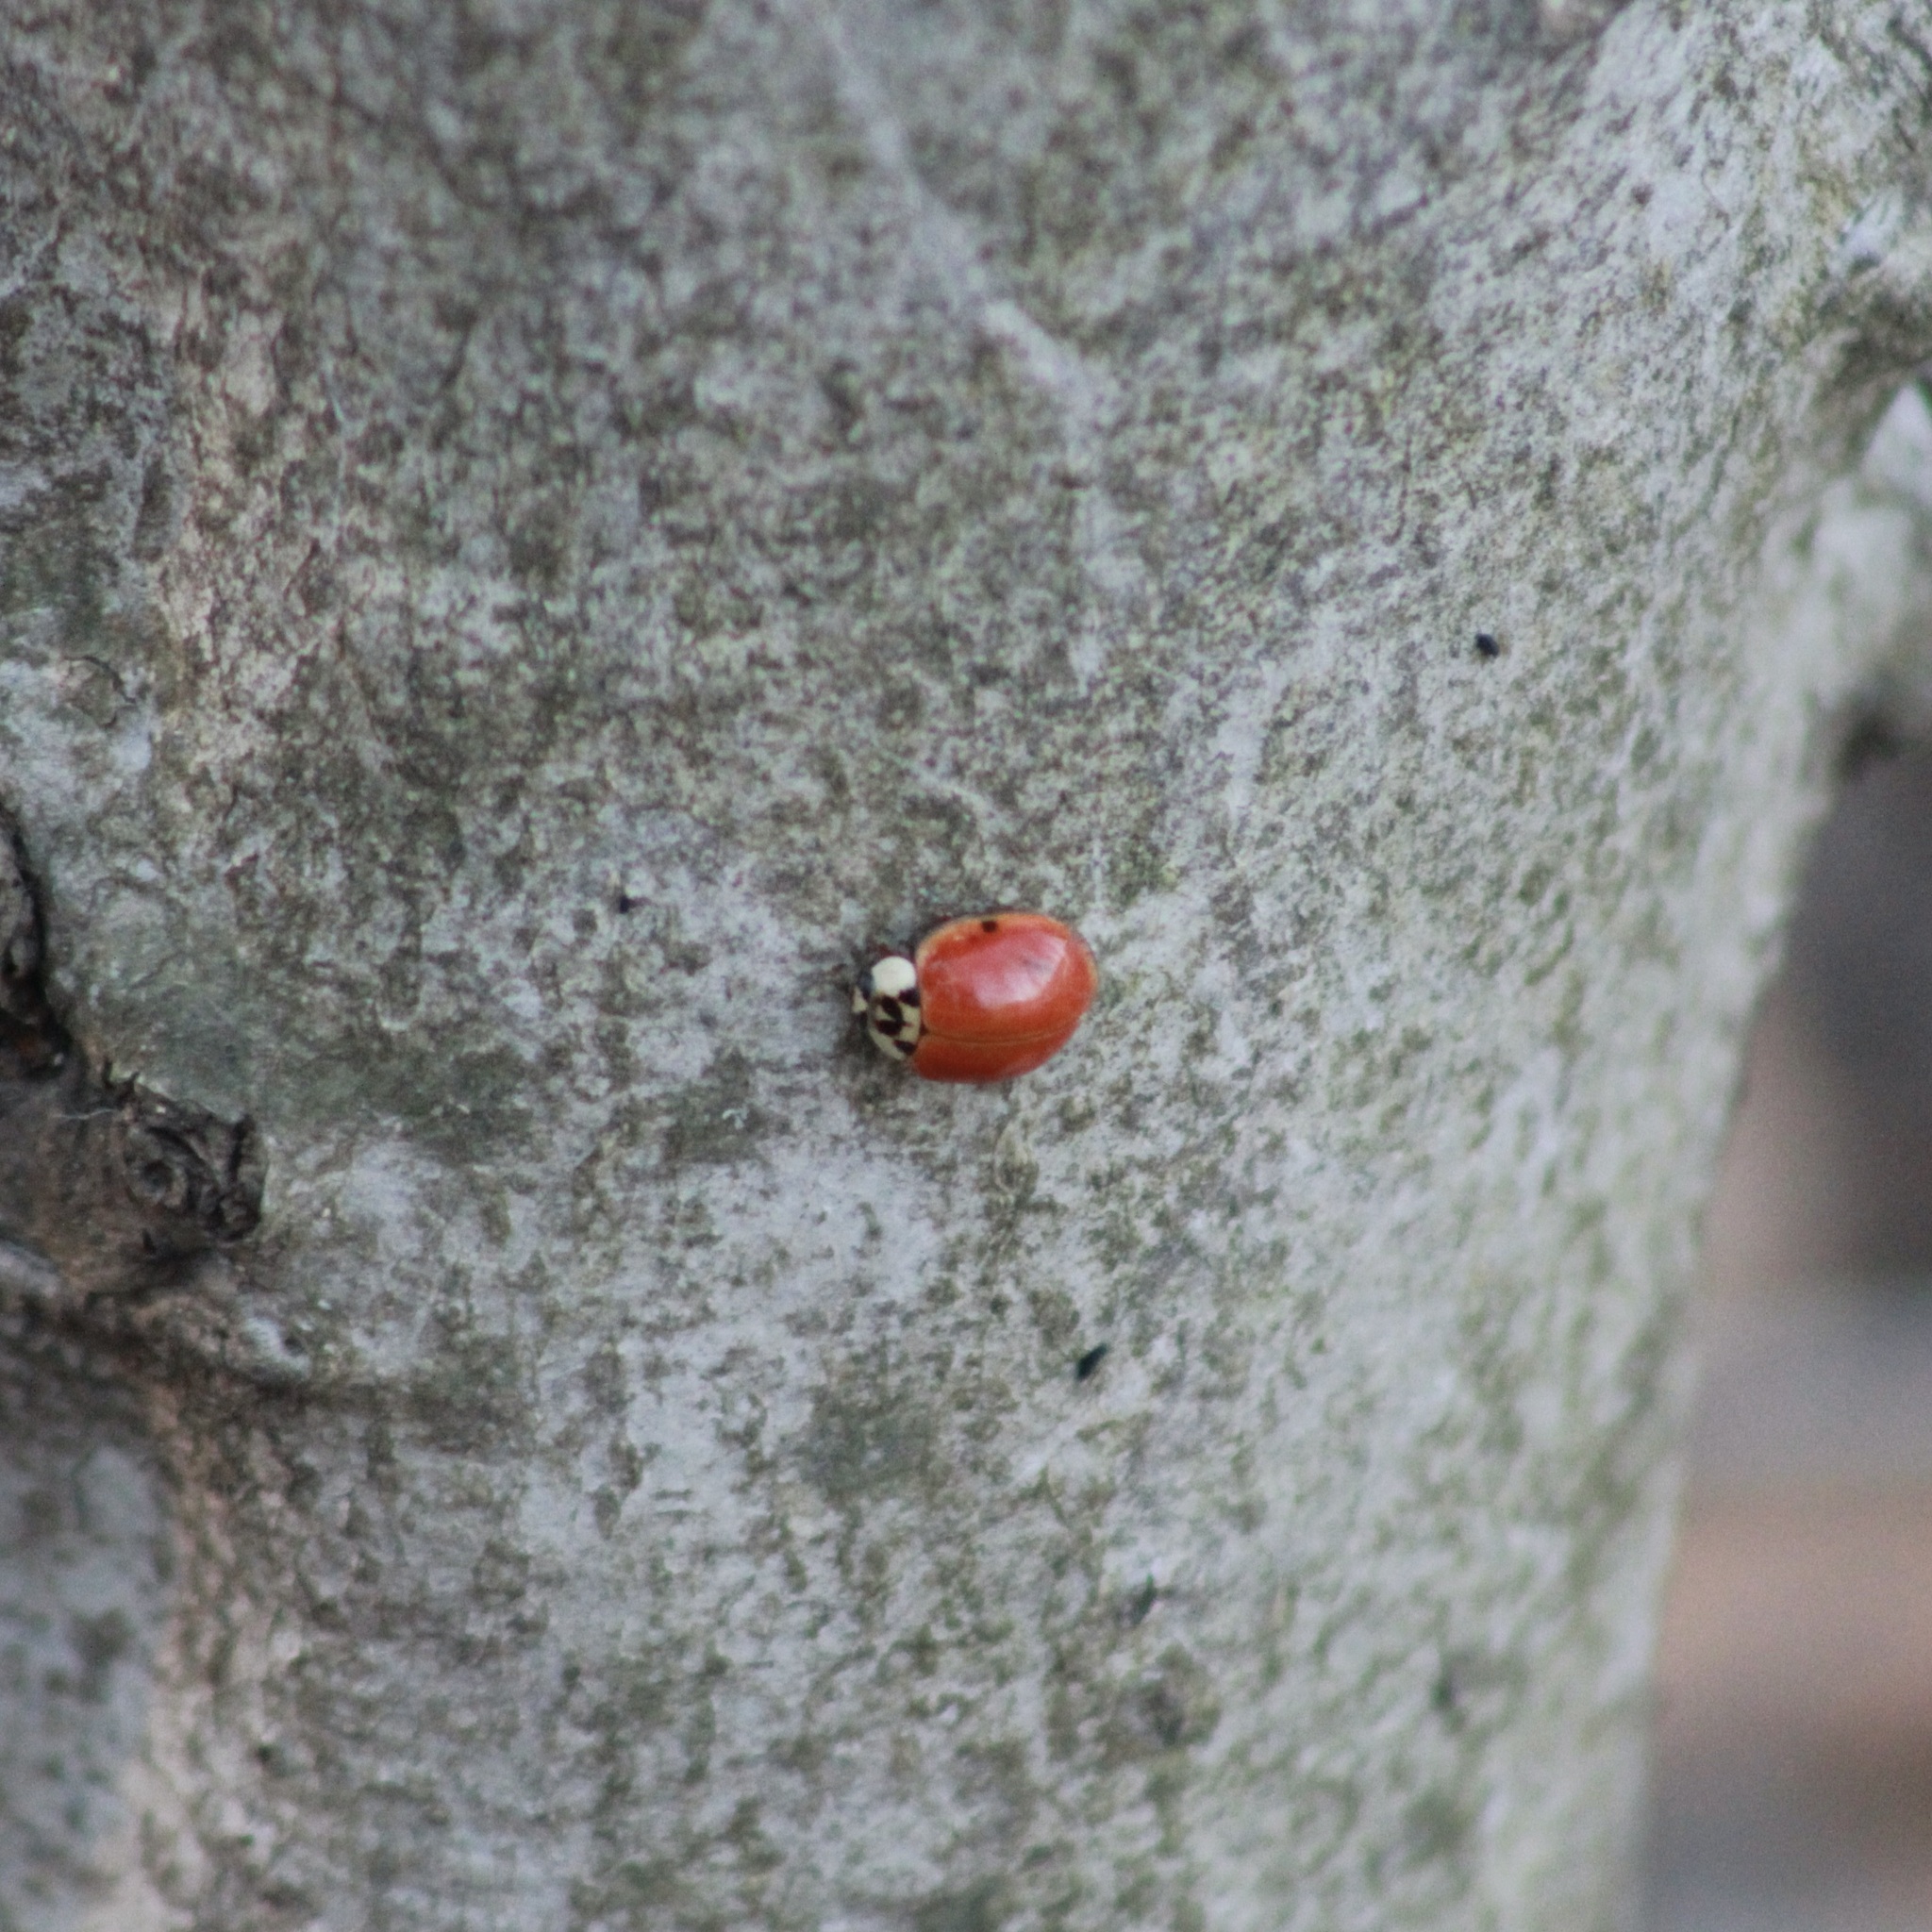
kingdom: Animalia
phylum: Arthropoda
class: Insecta
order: Coleoptera
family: Coccinellidae
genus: Harmonia
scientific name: Harmonia axyridis
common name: Harlequin ladybird
